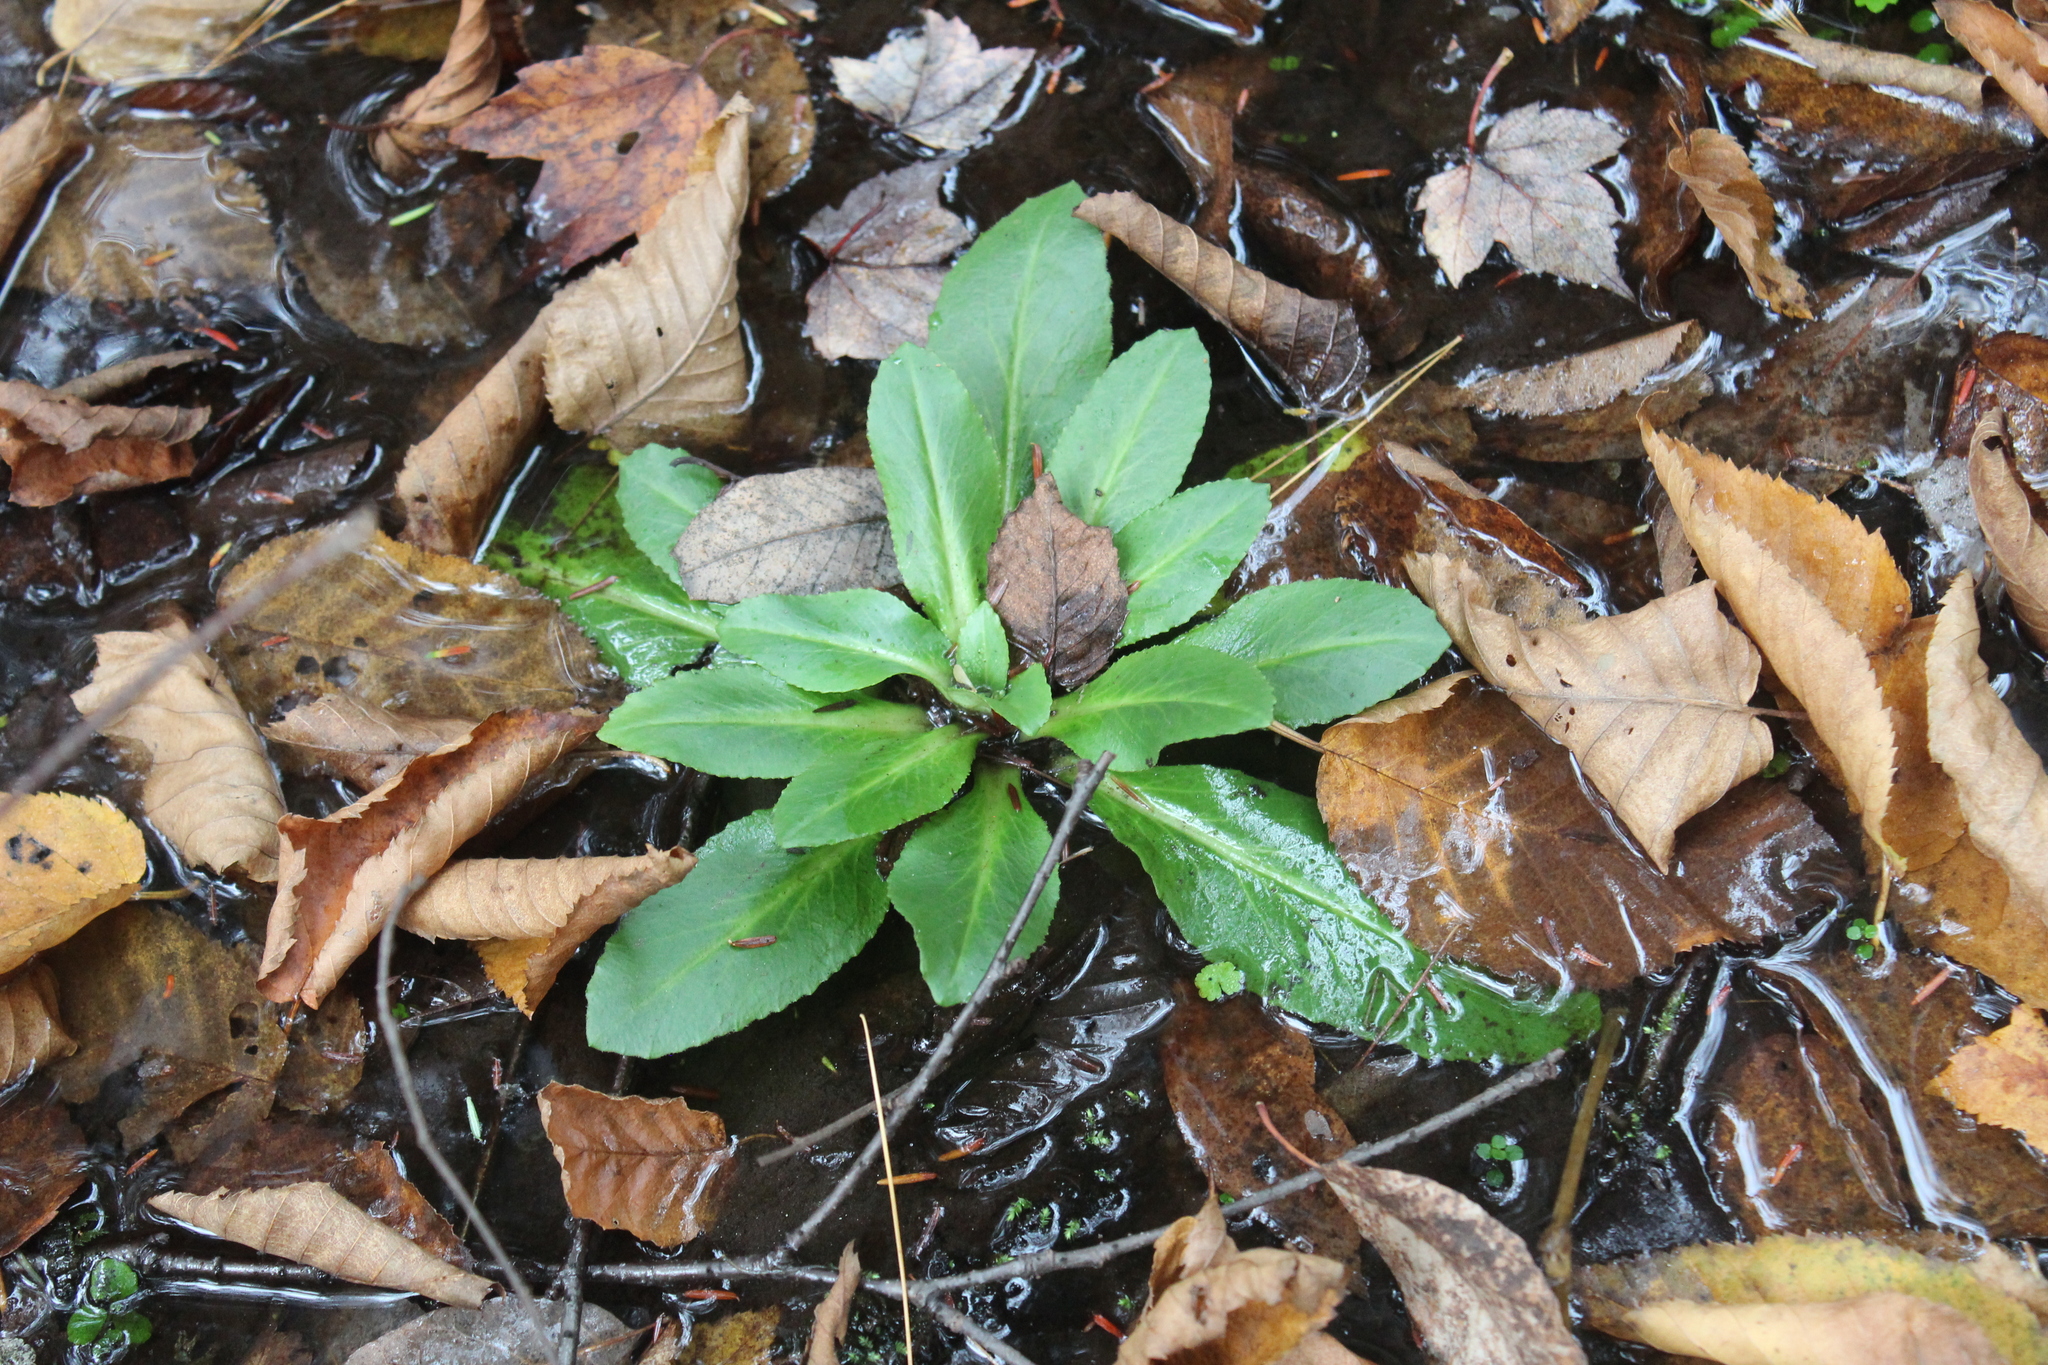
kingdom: Plantae
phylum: Tracheophyta
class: Magnoliopsida
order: Saxifragales
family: Saxifragaceae
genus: Micranthes
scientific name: Micranthes pensylvanica
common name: Marsh saxifrage
